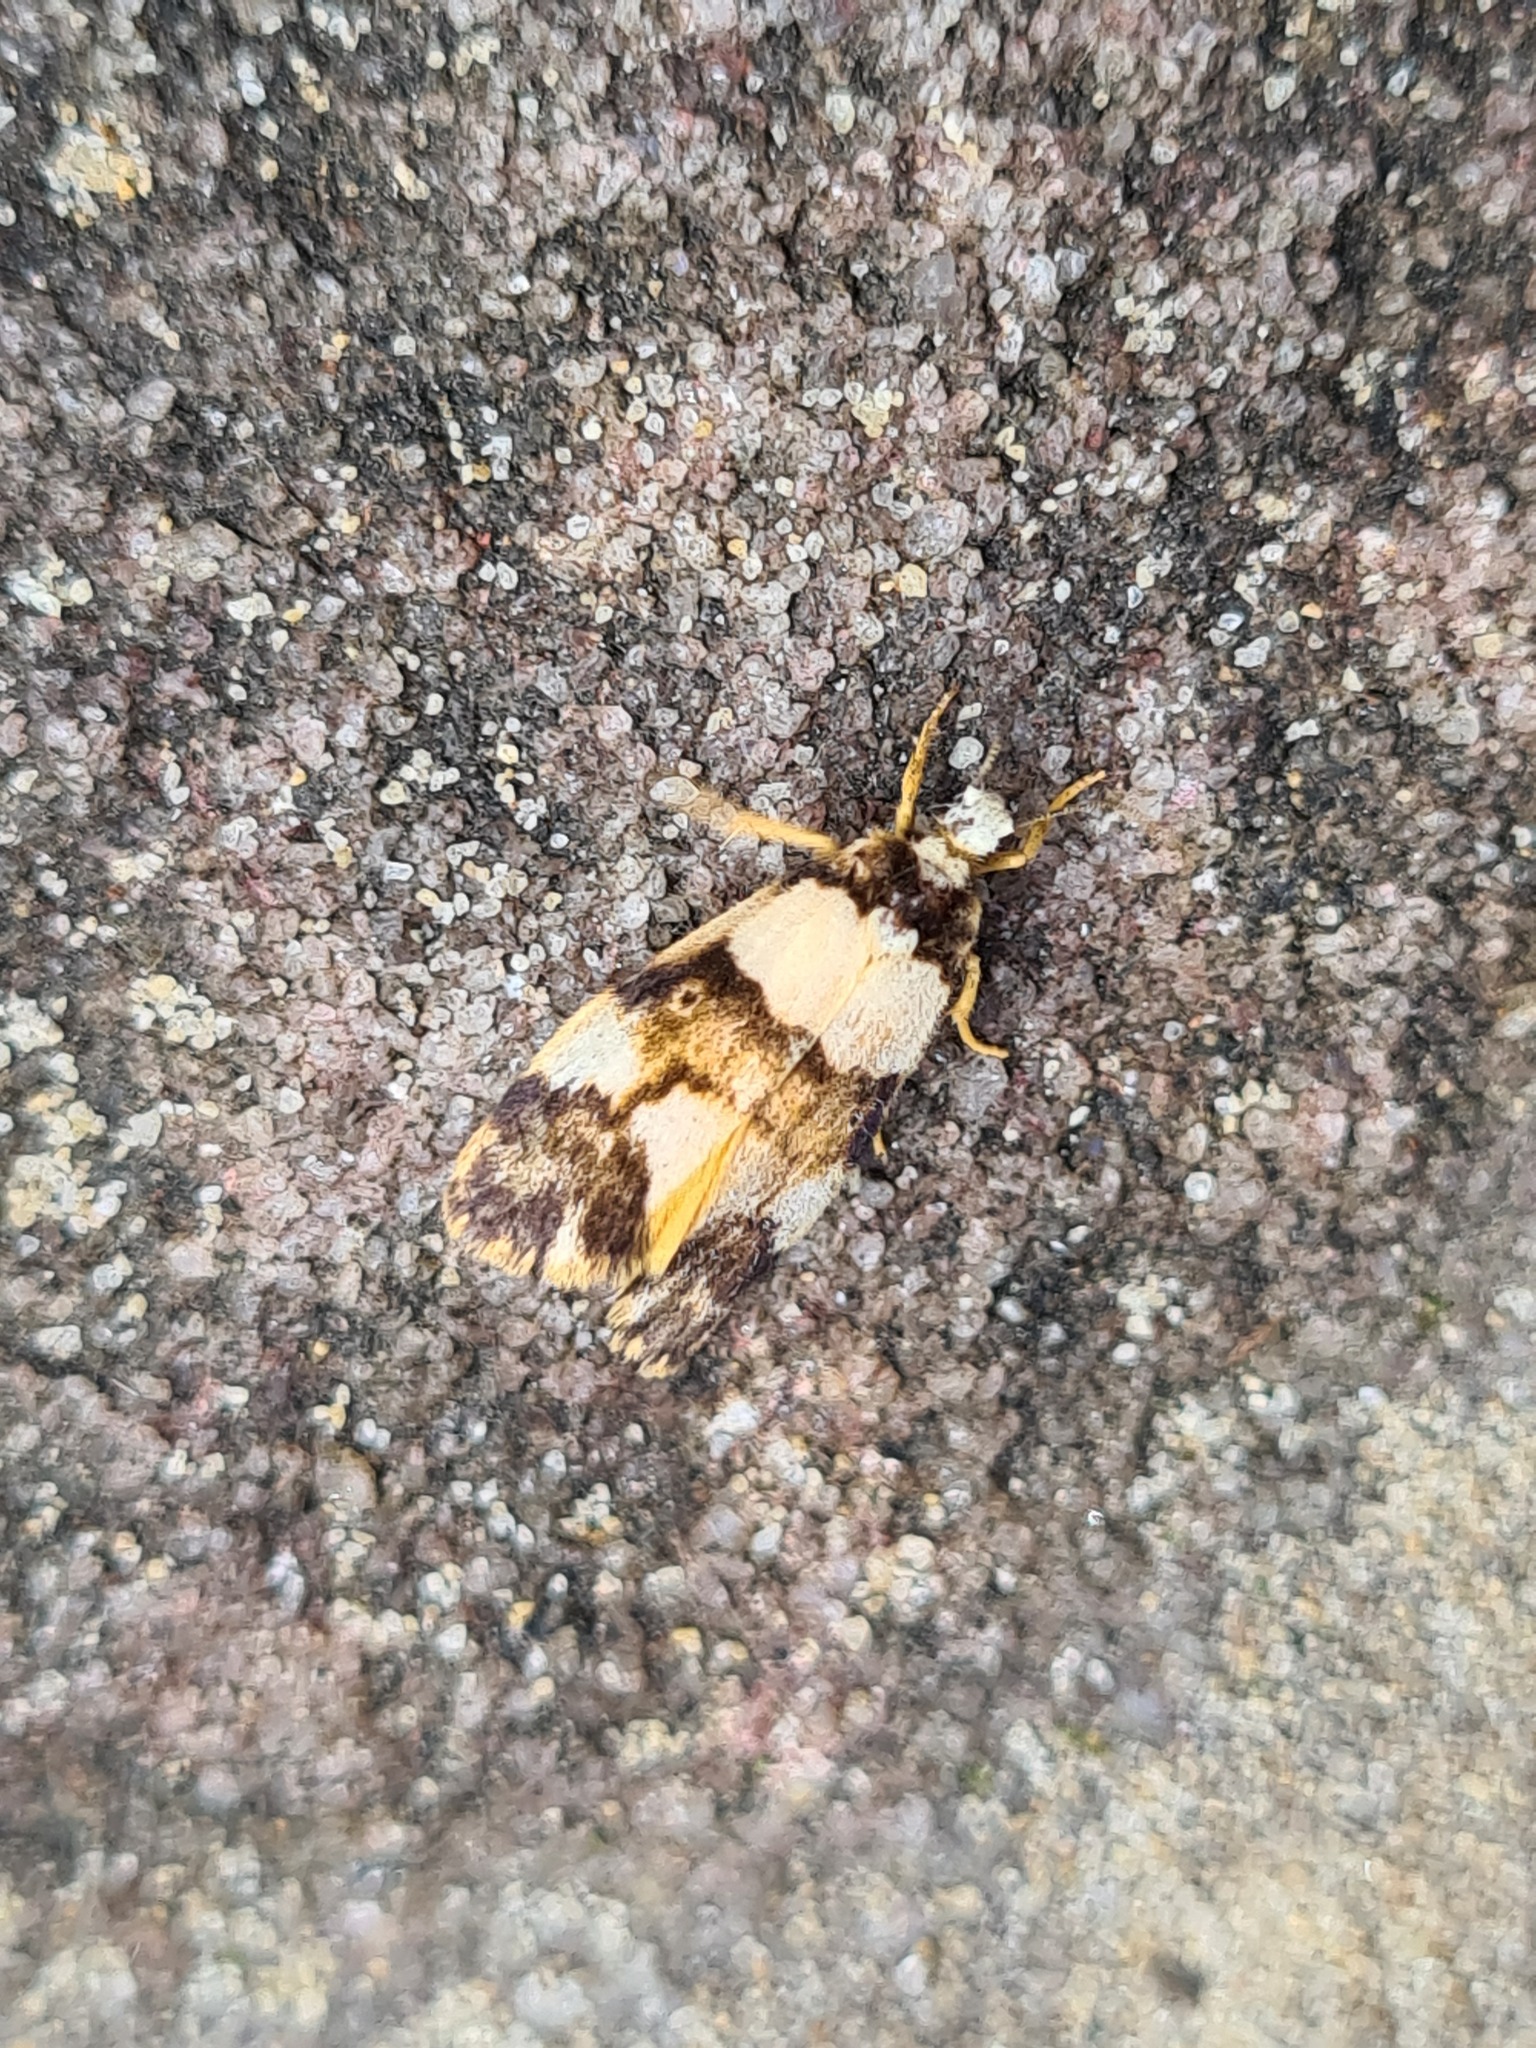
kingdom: Animalia
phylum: Arthropoda
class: Insecta
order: Lepidoptera
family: Erebidae
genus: Philenora
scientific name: Philenora aspectalella
